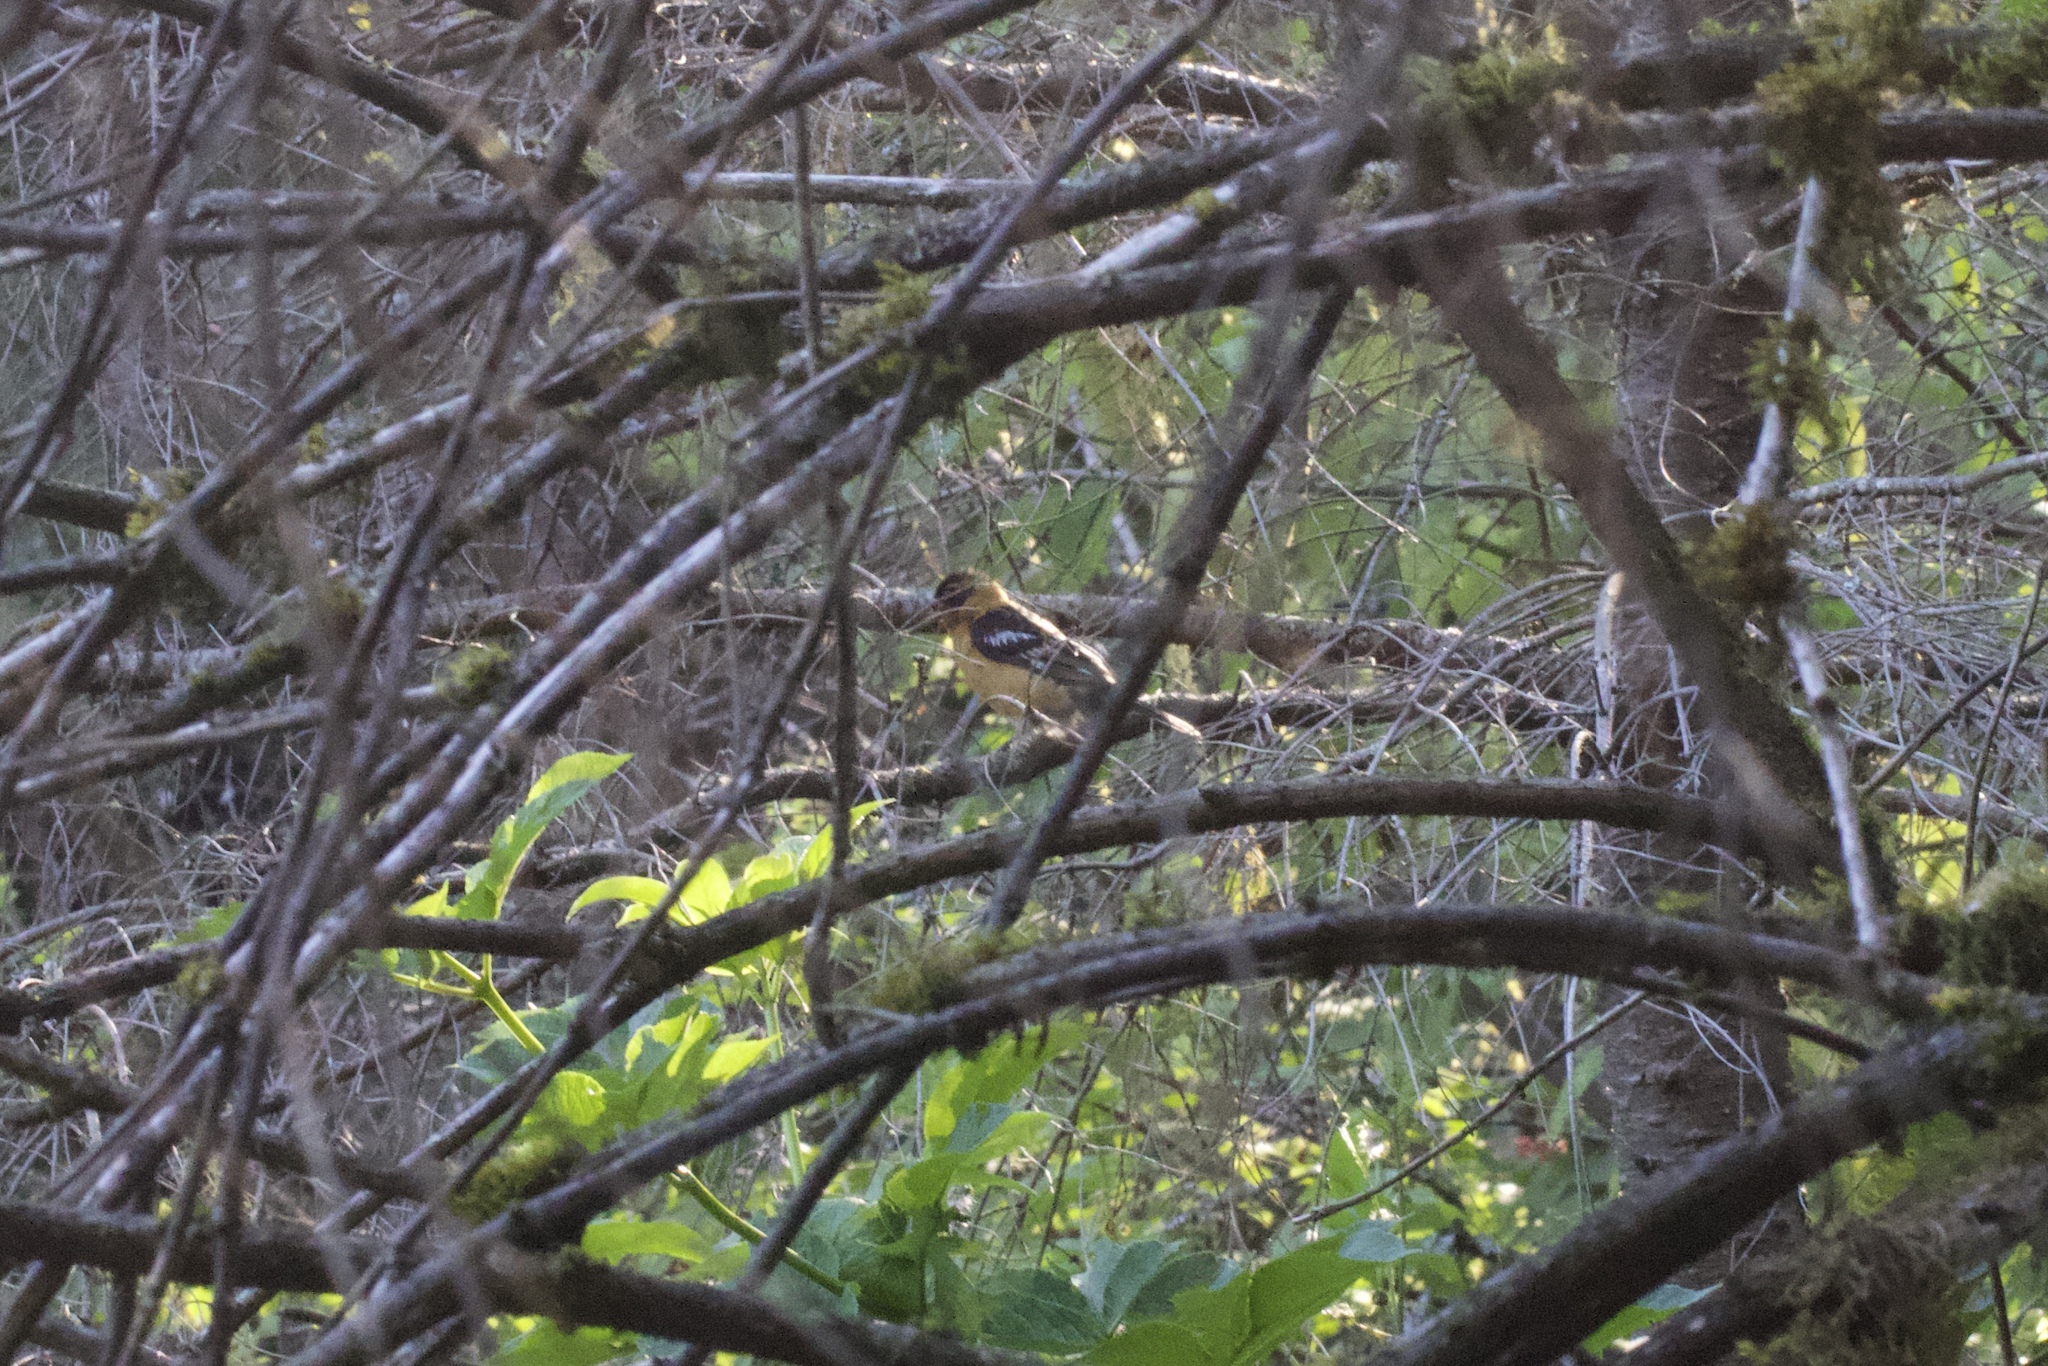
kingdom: Animalia
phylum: Chordata
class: Aves
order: Passeriformes
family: Cardinalidae
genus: Pheucticus
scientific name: Pheucticus melanocephalus
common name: Black-headed grosbeak
